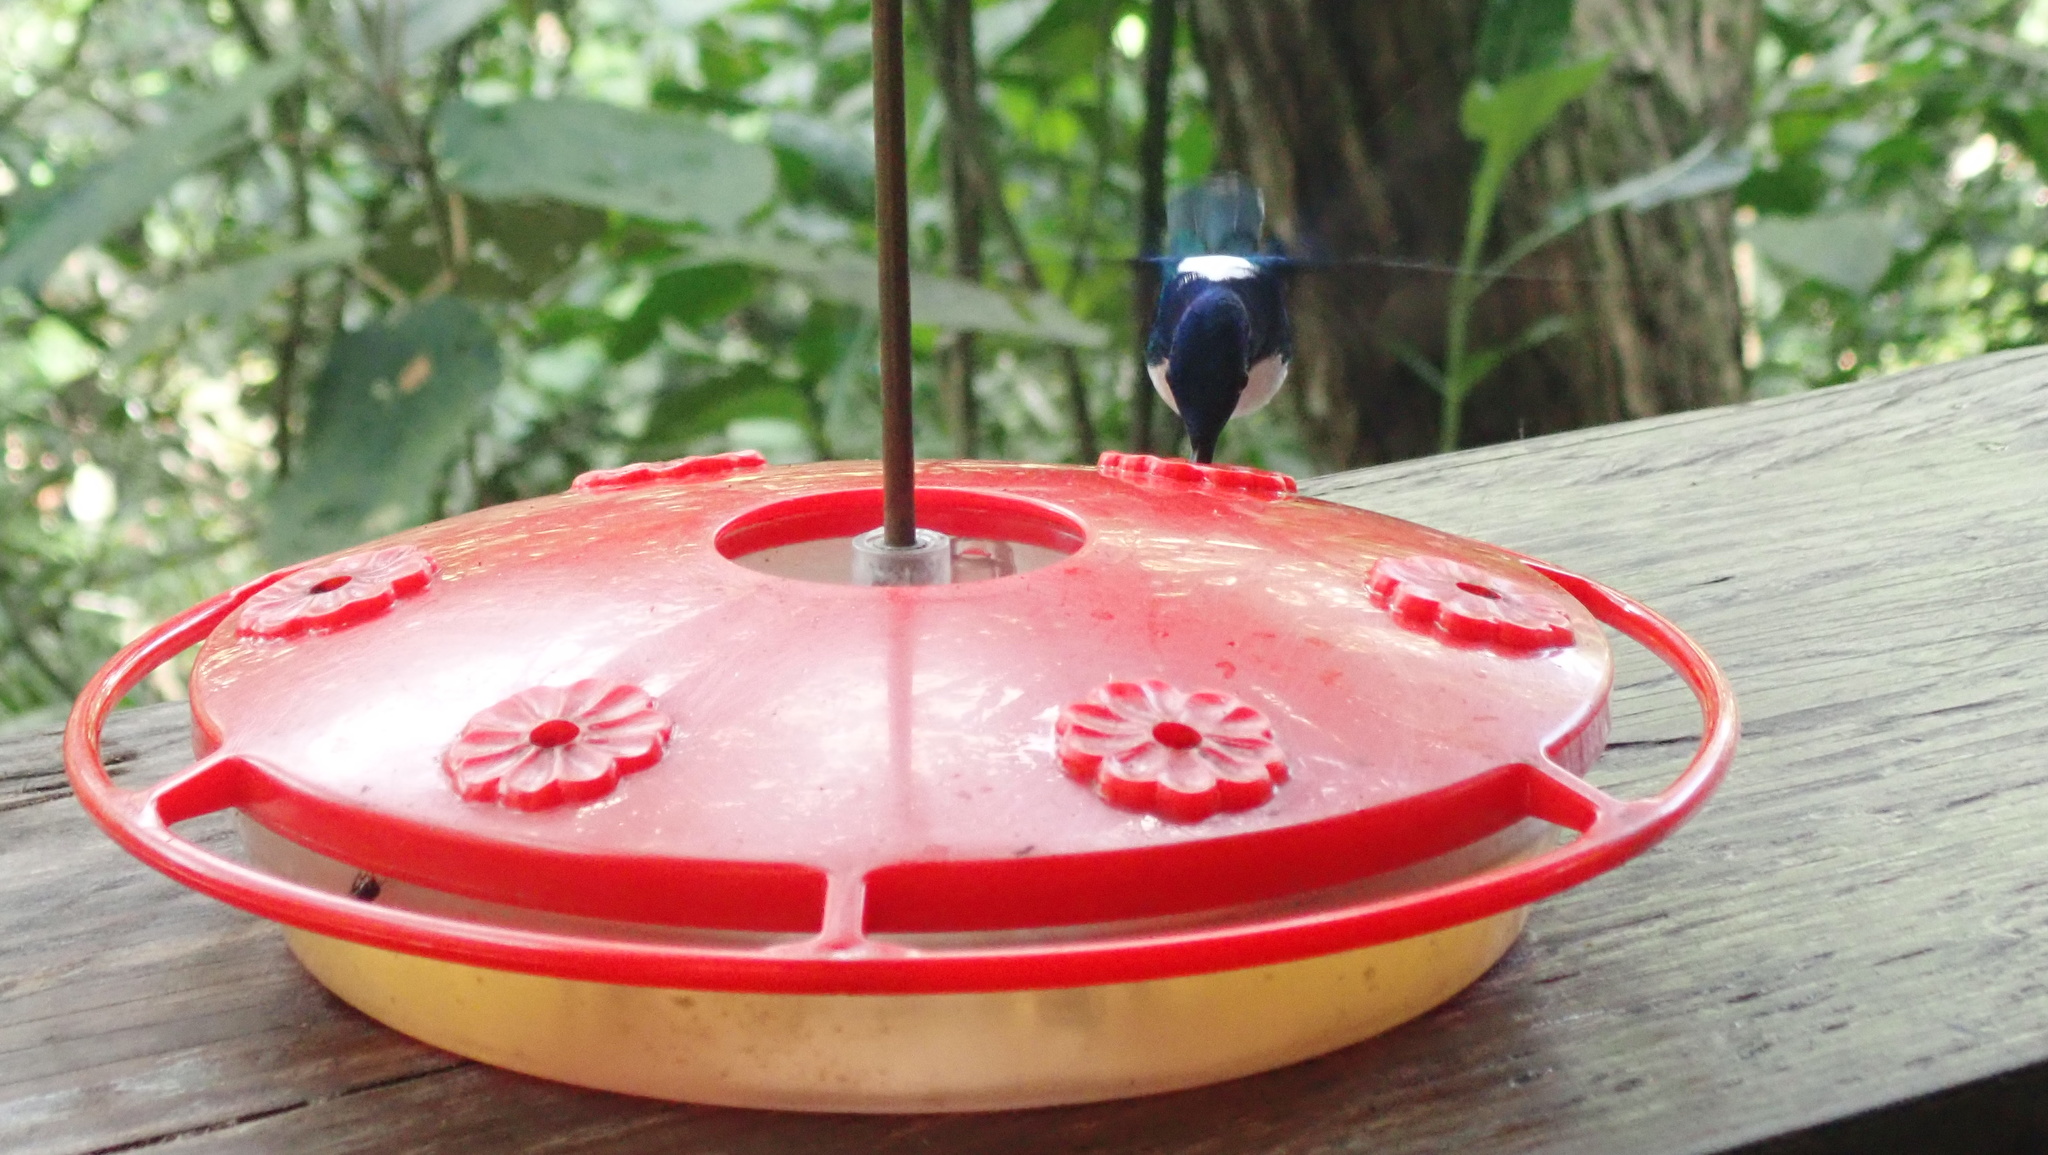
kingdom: Animalia
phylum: Chordata
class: Aves
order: Apodiformes
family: Trochilidae
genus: Florisuga
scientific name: Florisuga mellivora
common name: White-necked jacobin
